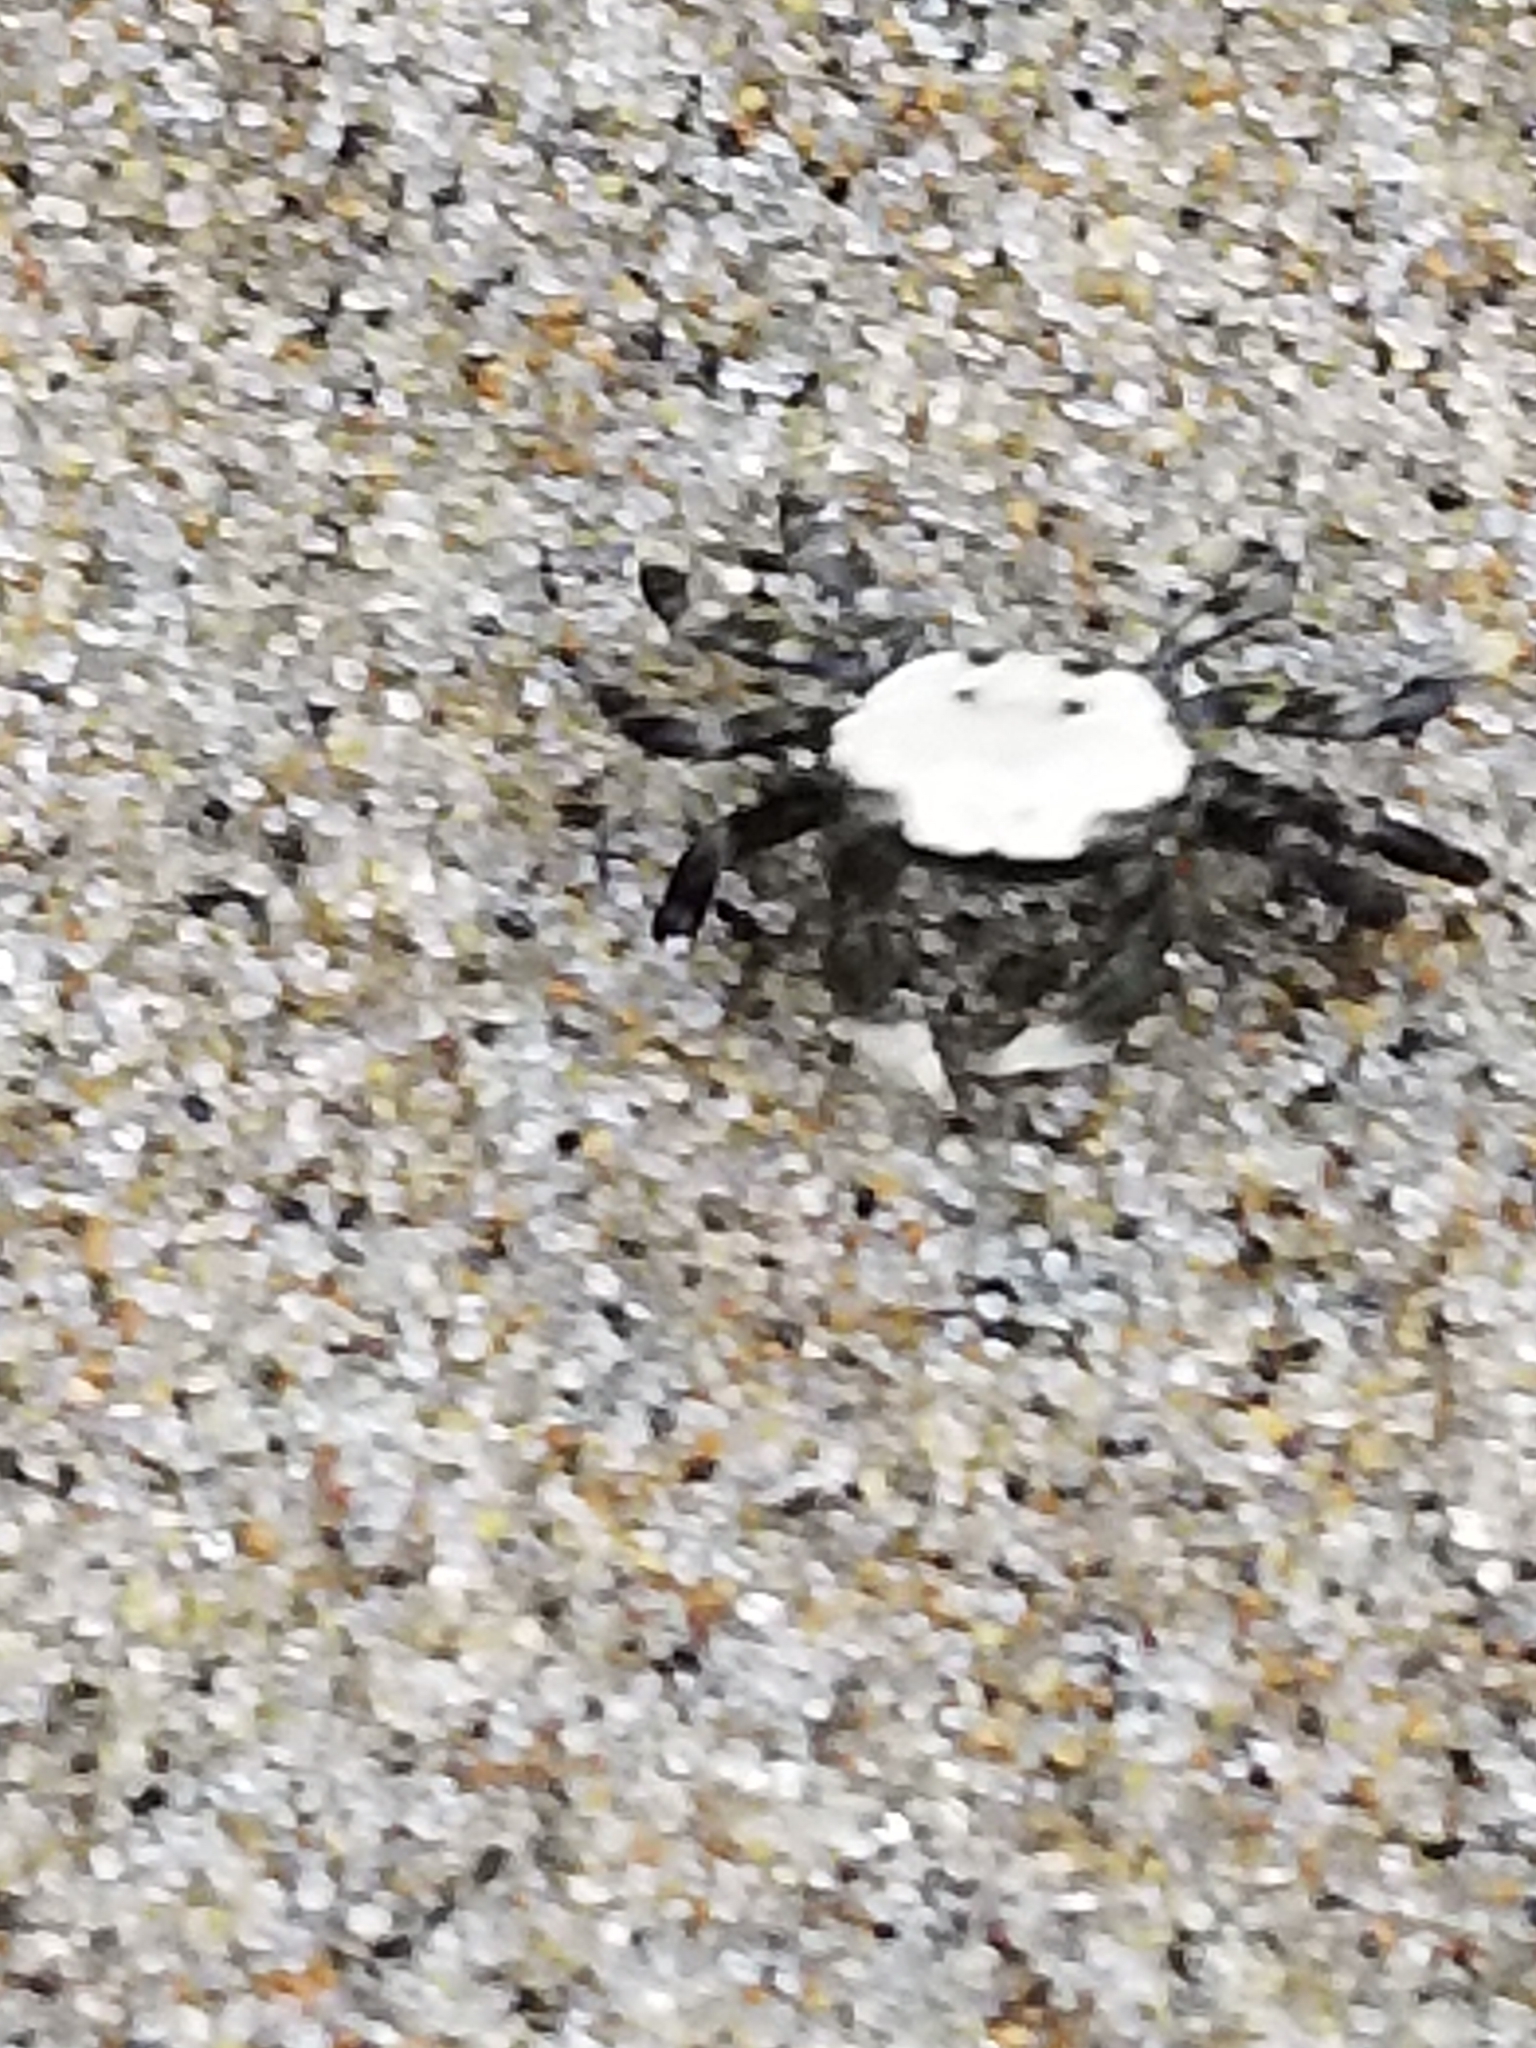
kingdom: Animalia
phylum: Arthropoda
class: Malacostraca
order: Decapoda
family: Varunidae
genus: Hemigrapsus
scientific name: Hemigrapsus oregonensis
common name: Yellow shore crab
